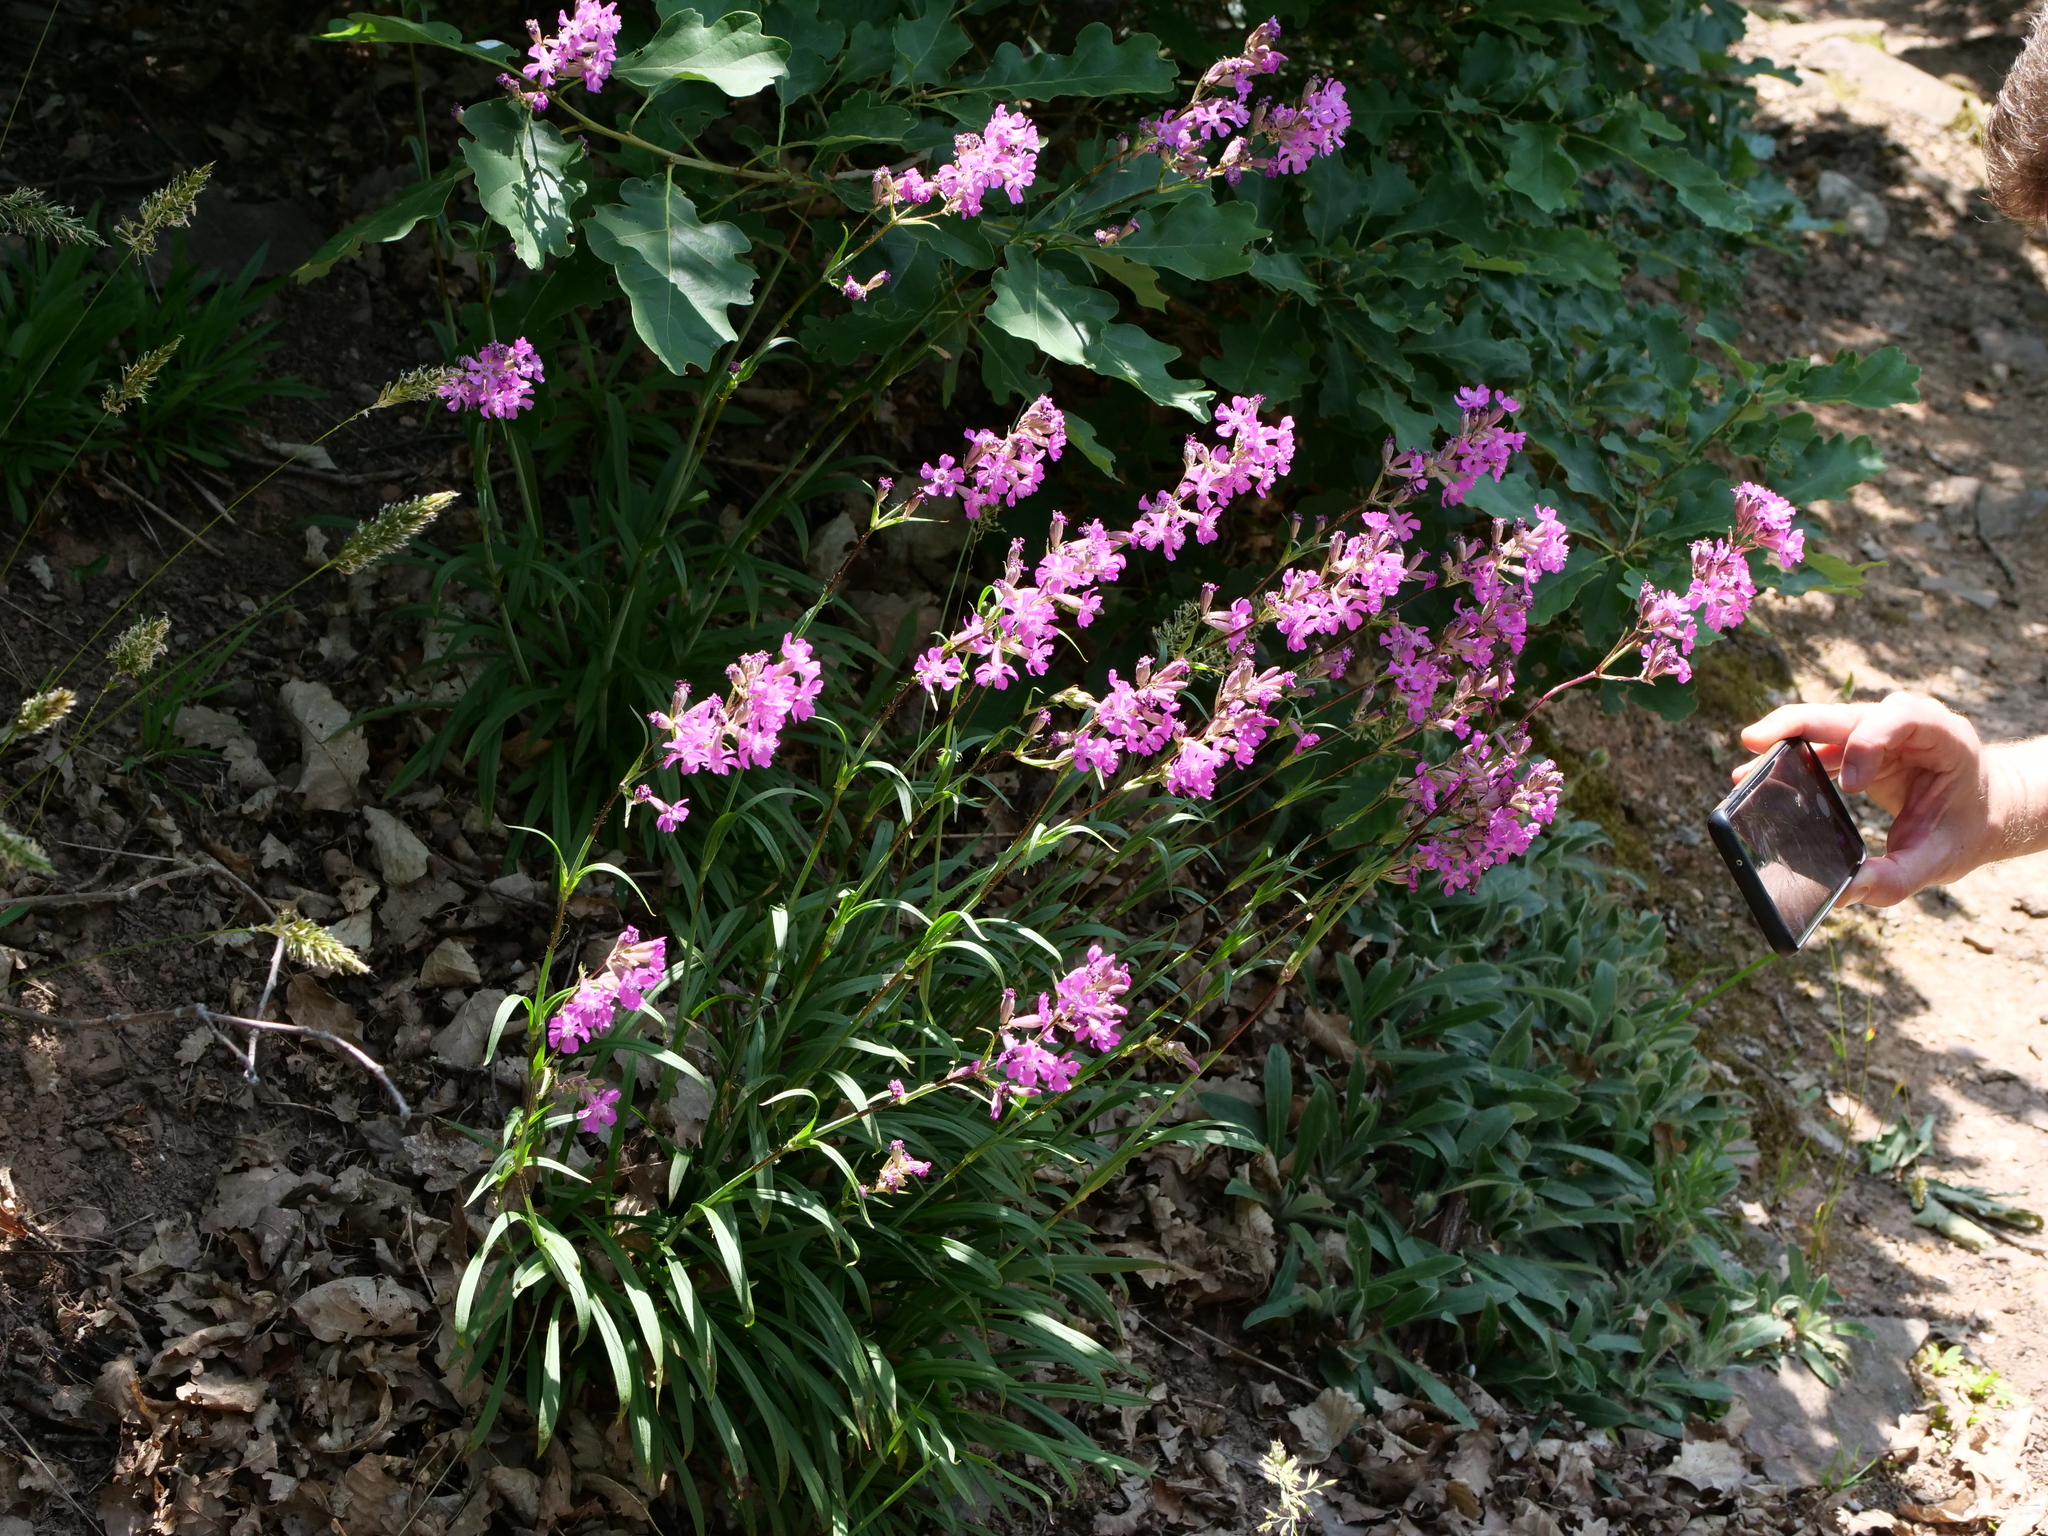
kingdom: Plantae
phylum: Tracheophyta
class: Magnoliopsida
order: Caryophyllales
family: Caryophyllaceae
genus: Viscaria
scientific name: Viscaria vulgaris
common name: Clammy campion
